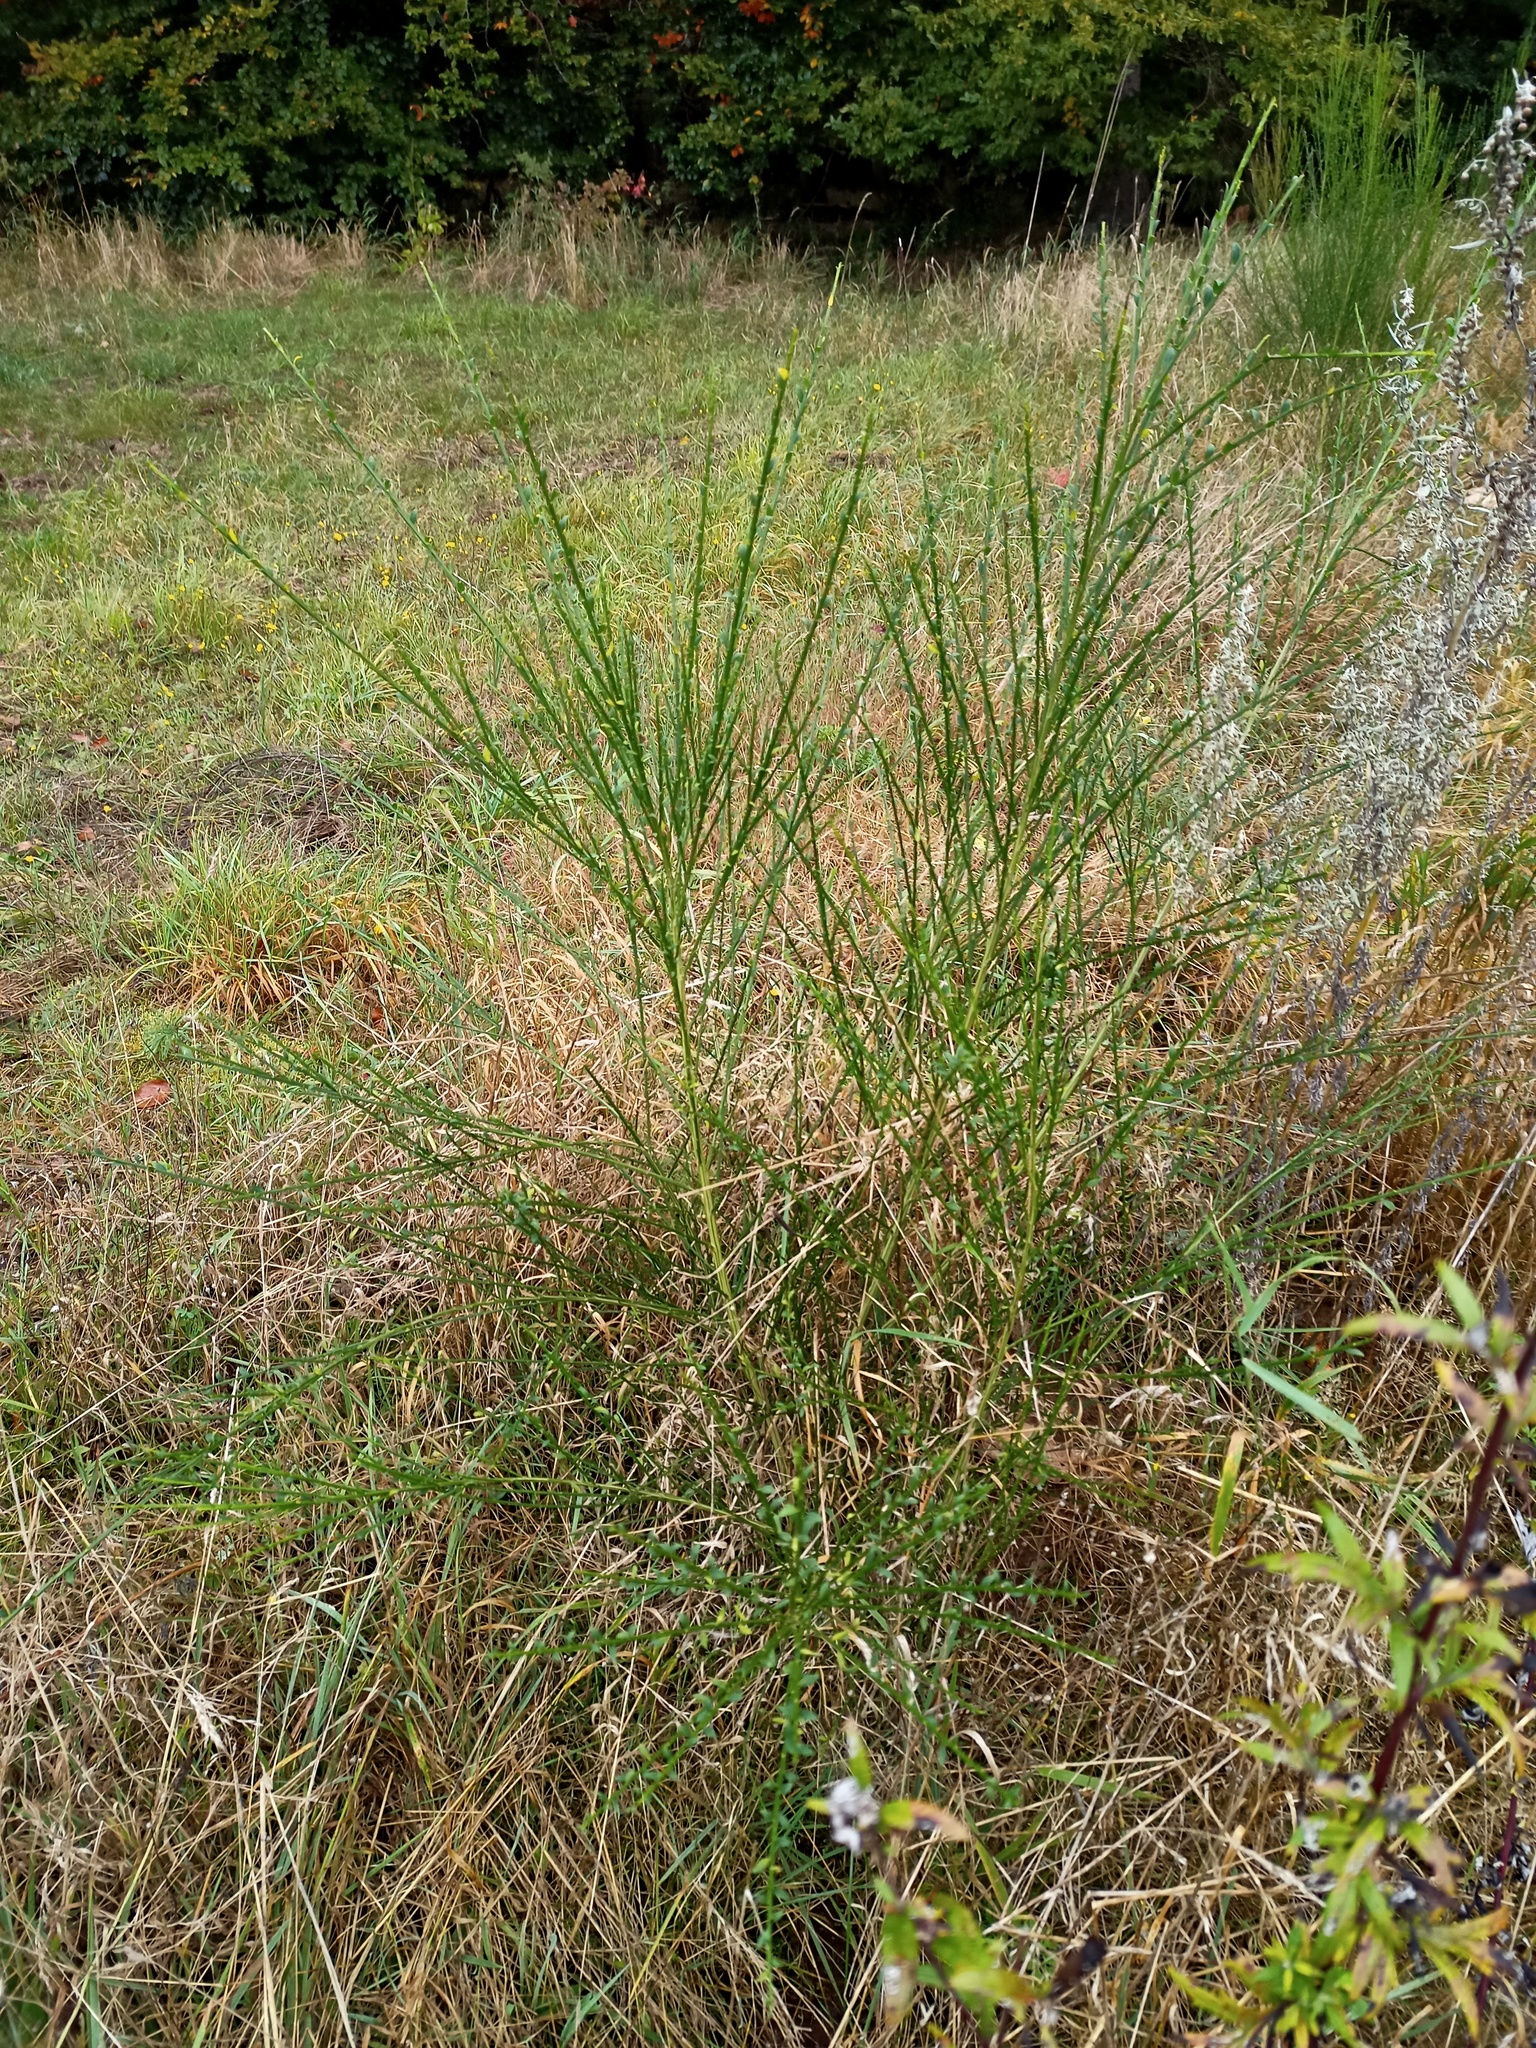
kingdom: Plantae
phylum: Tracheophyta
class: Magnoliopsida
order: Fabales
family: Fabaceae
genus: Cytisus
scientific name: Cytisus scoparius
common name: Scotch broom
